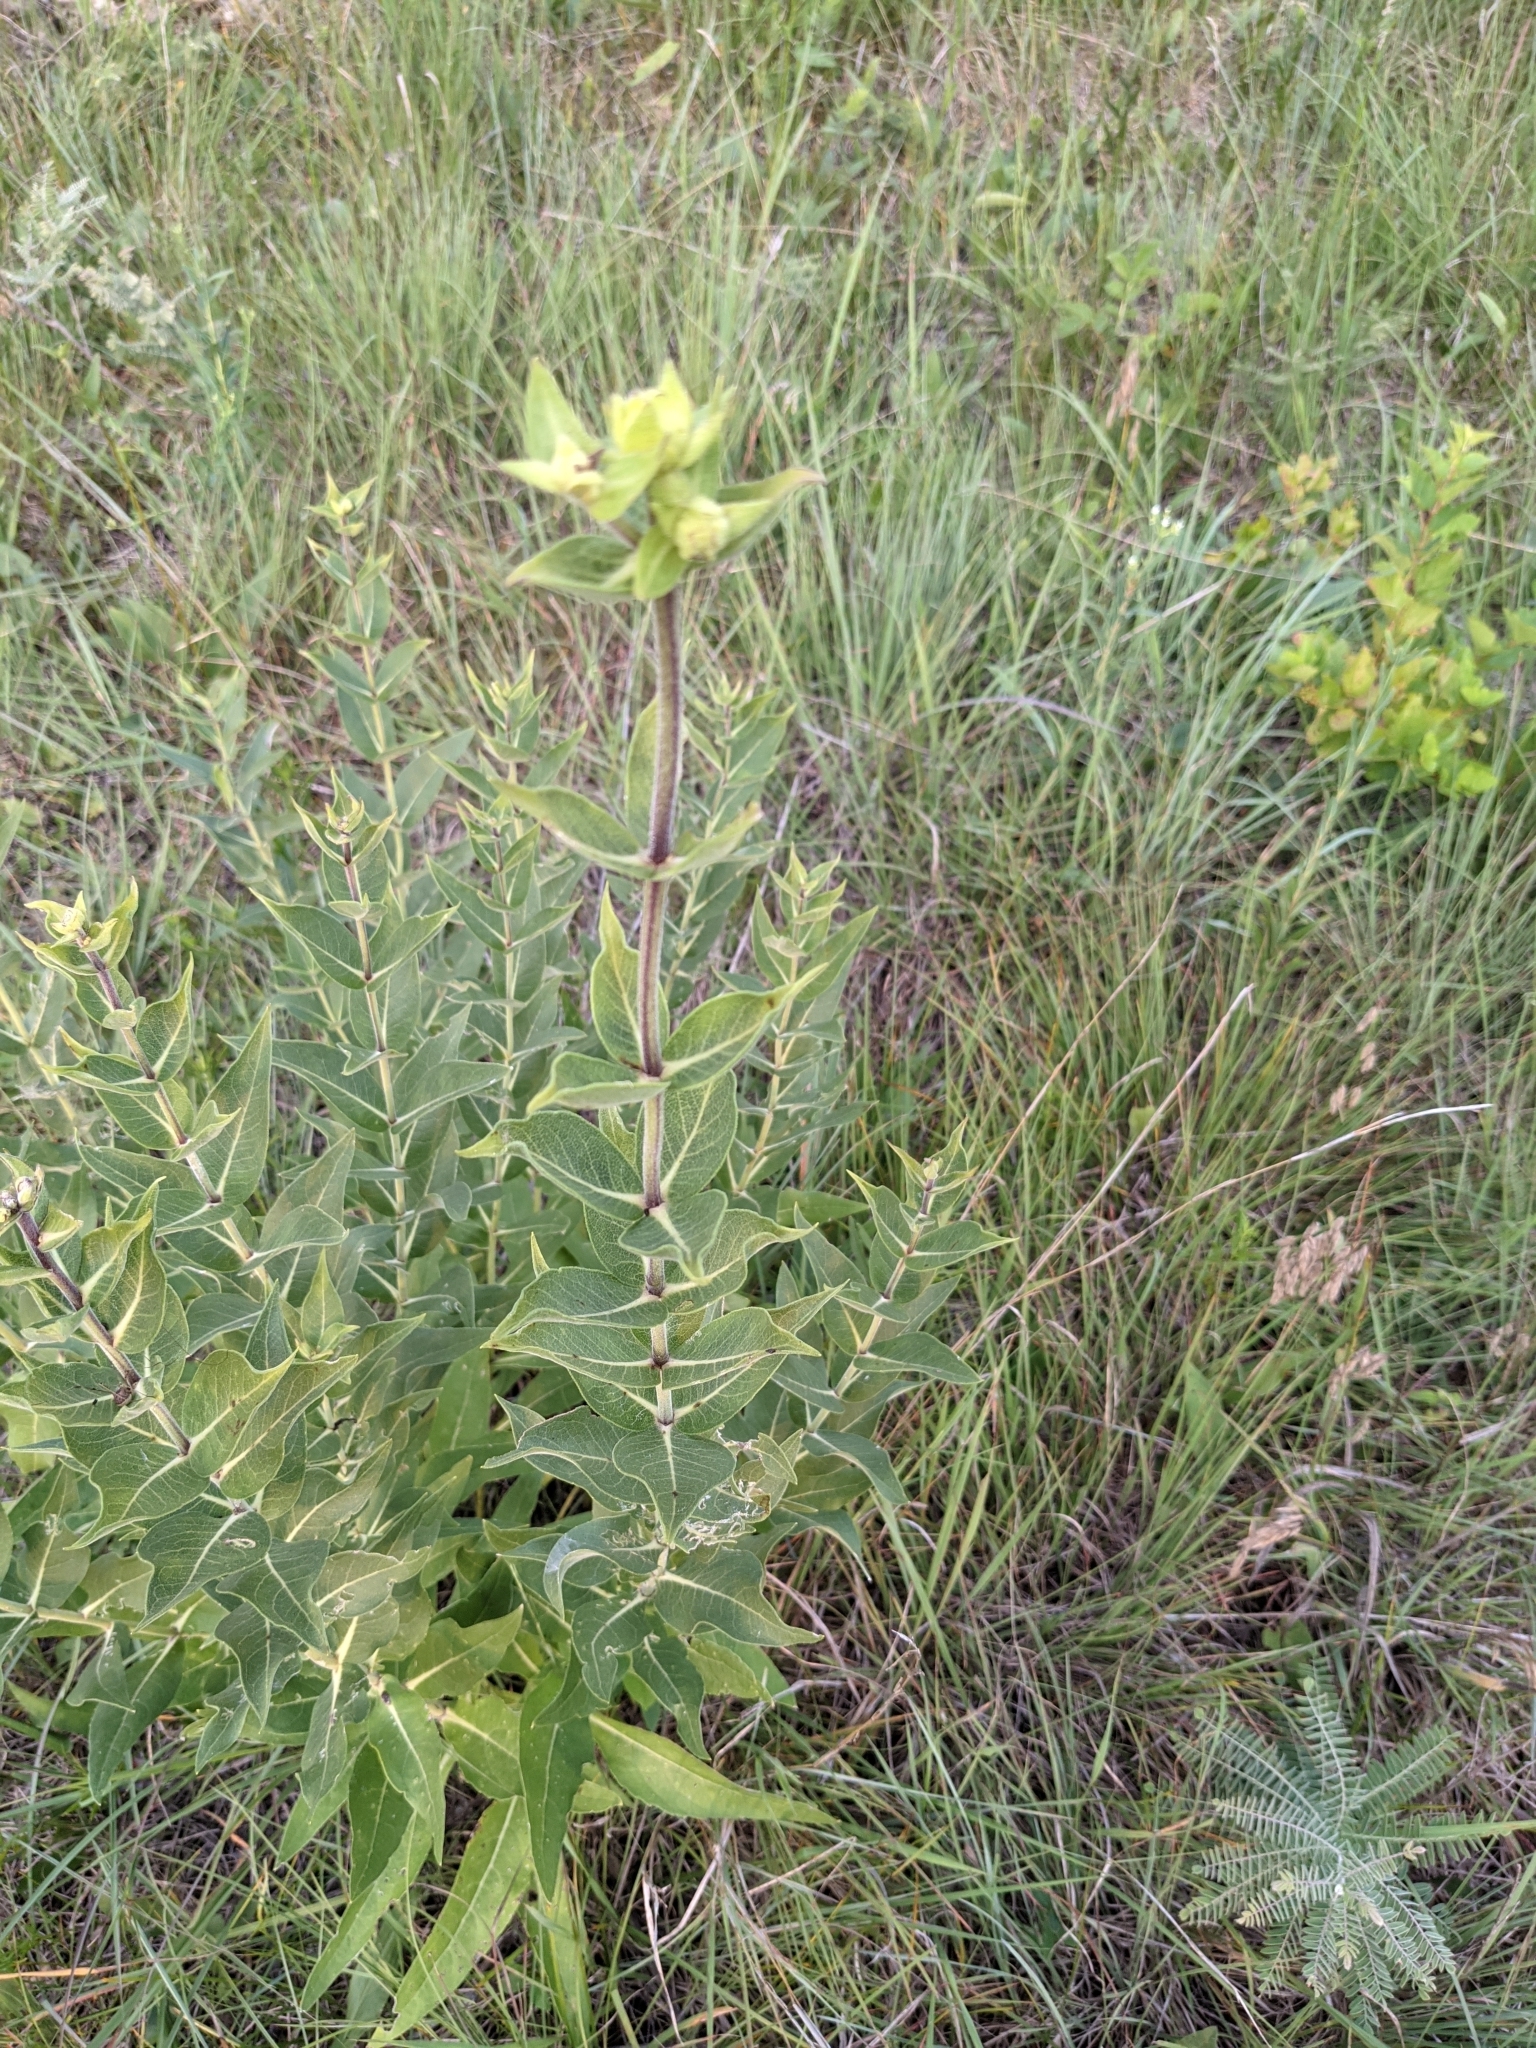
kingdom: Plantae
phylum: Tracheophyta
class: Magnoliopsida
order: Asterales
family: Asteraceae
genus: Silphium
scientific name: Silphium integrifolium
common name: Whole-leaf rosinweed
